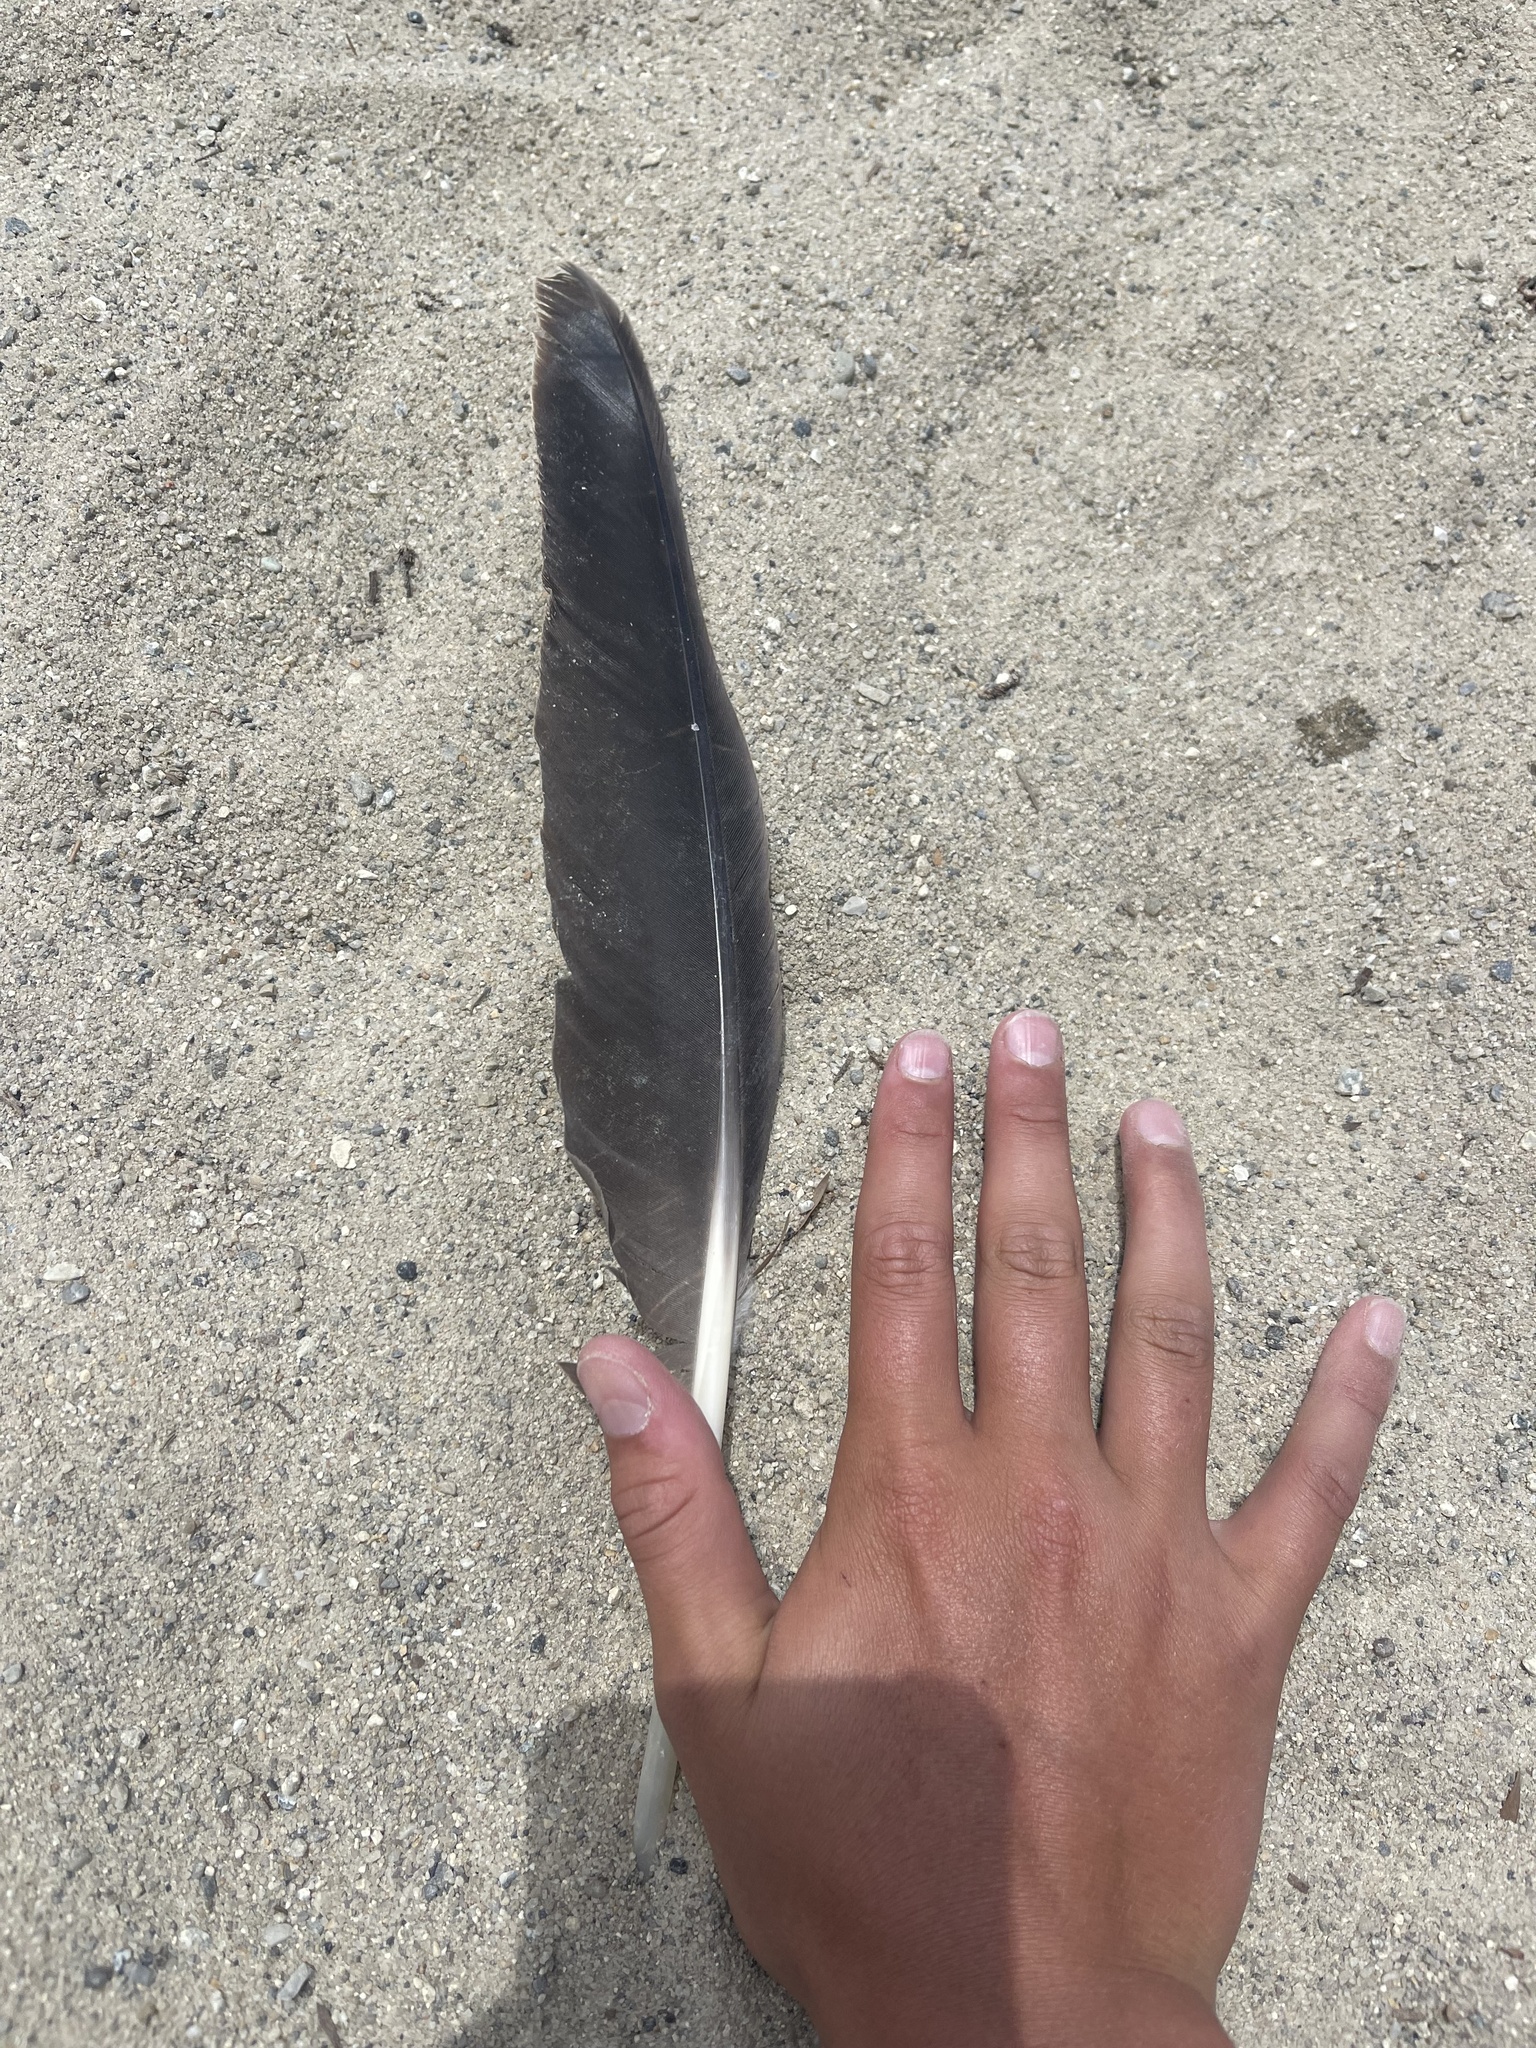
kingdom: Animalia
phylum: Chordata
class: Aves
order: Anseriformes
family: Anatidae
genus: Branta
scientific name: Branta canadensis
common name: Canada goose
